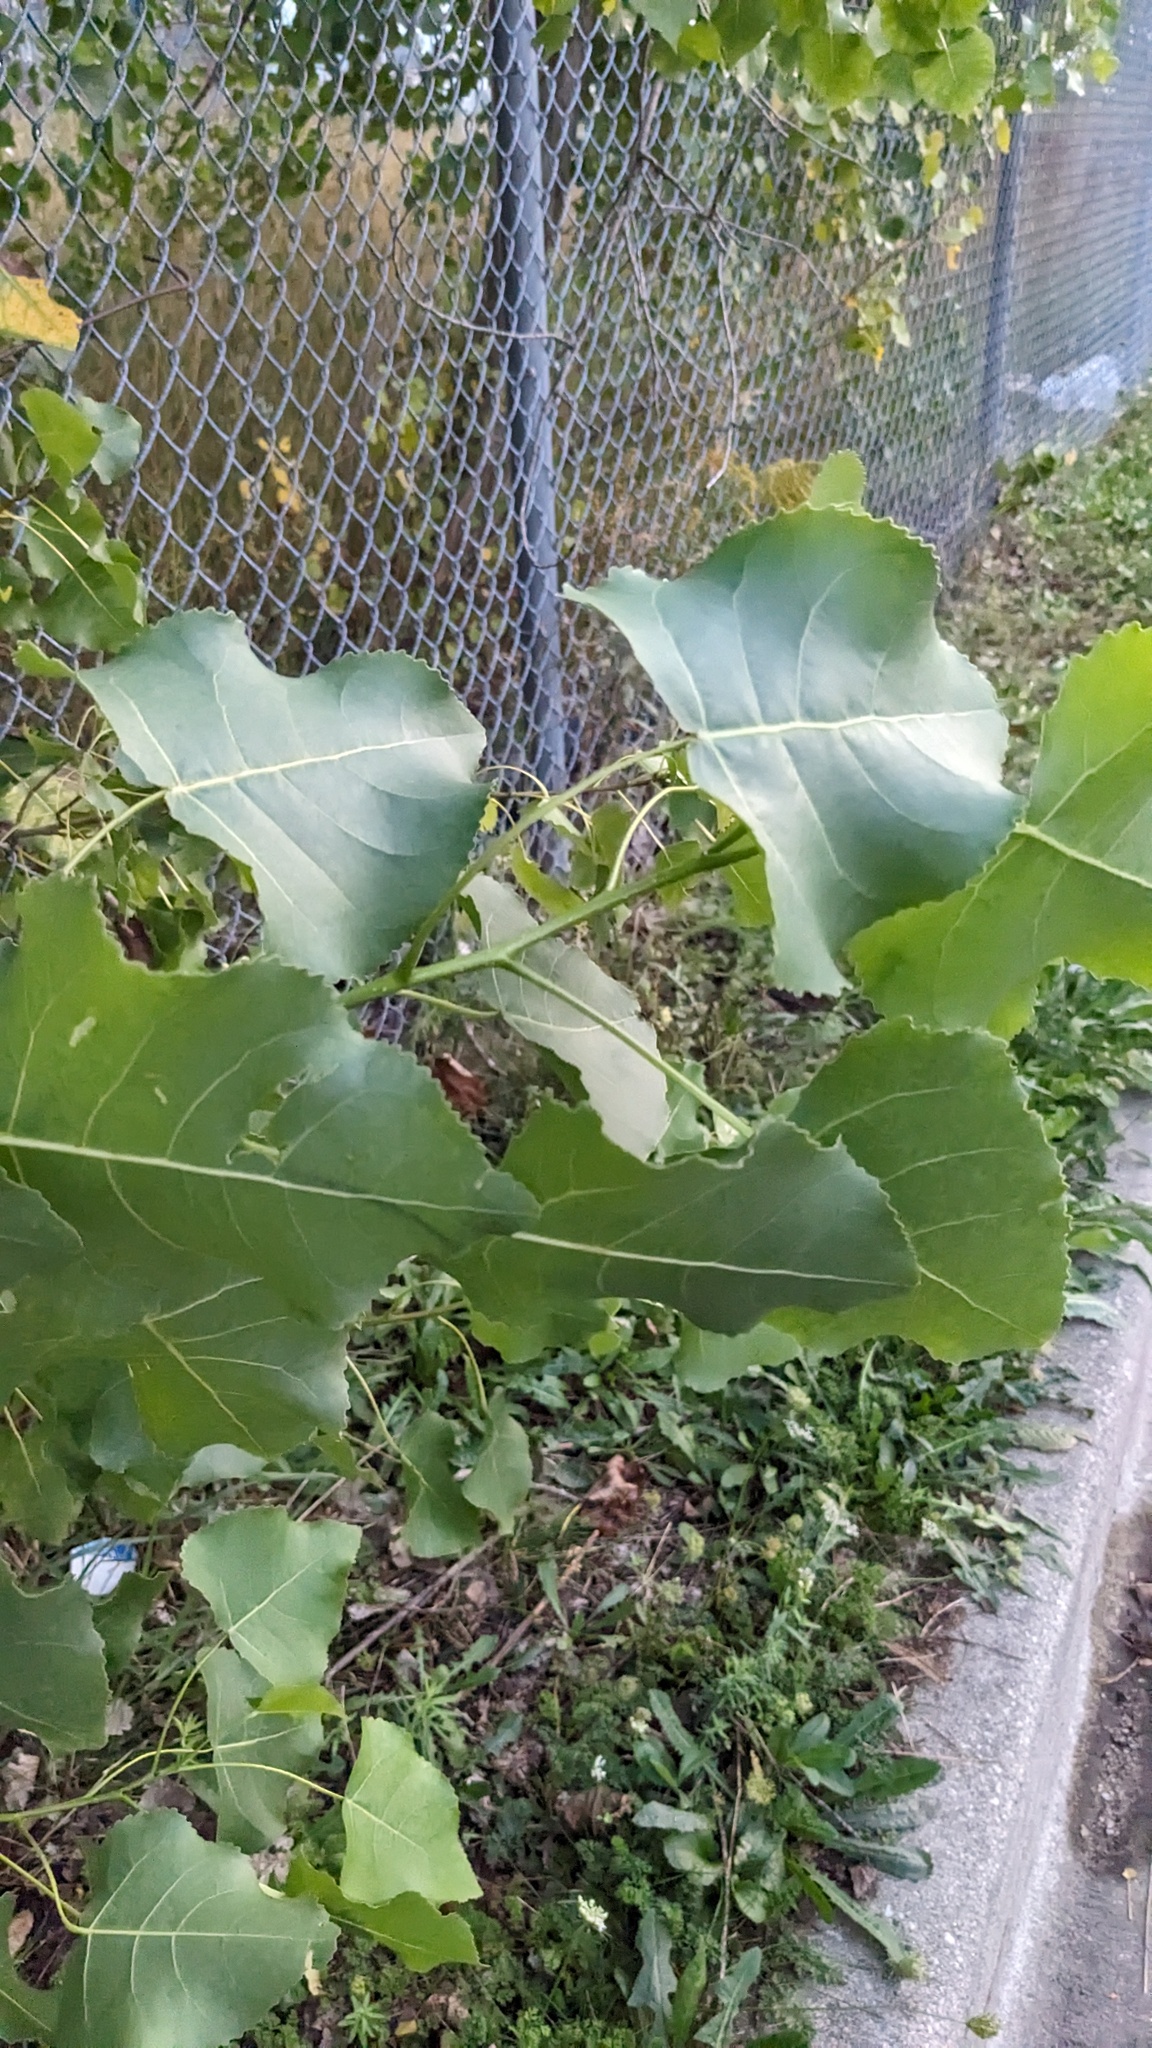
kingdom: Plantae
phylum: Tracheophyta
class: Magnoliopsida
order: Malpighiales
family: Salicaceae
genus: Populus
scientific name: Populus deltoides
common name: Eastern cottonwood
